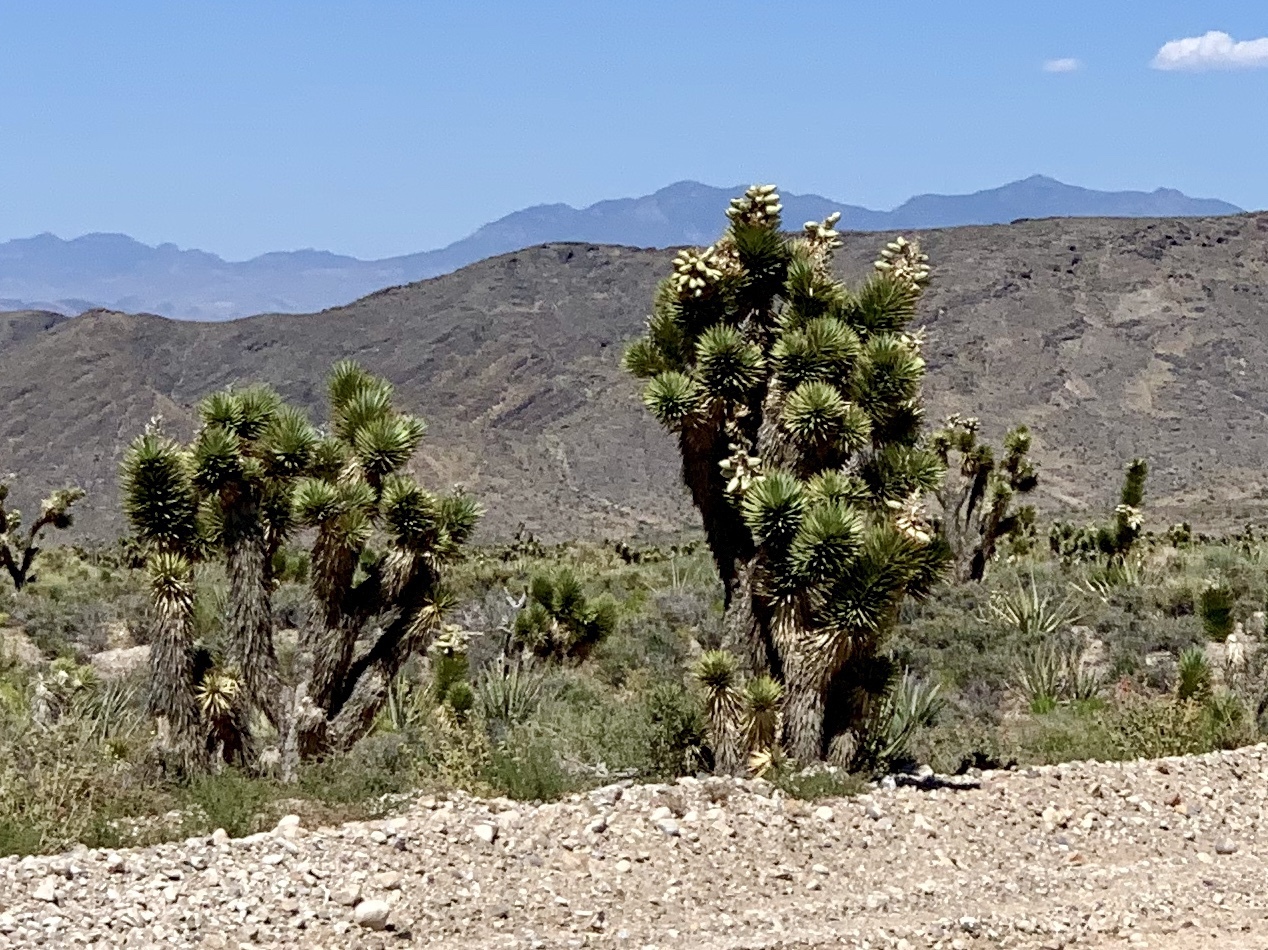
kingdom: Plantae
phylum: Tracheophyta
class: Liliopsida
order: Asparagales
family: Asparagaceae
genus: Yucca
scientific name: Yucca brevifolia
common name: Joshua tree
